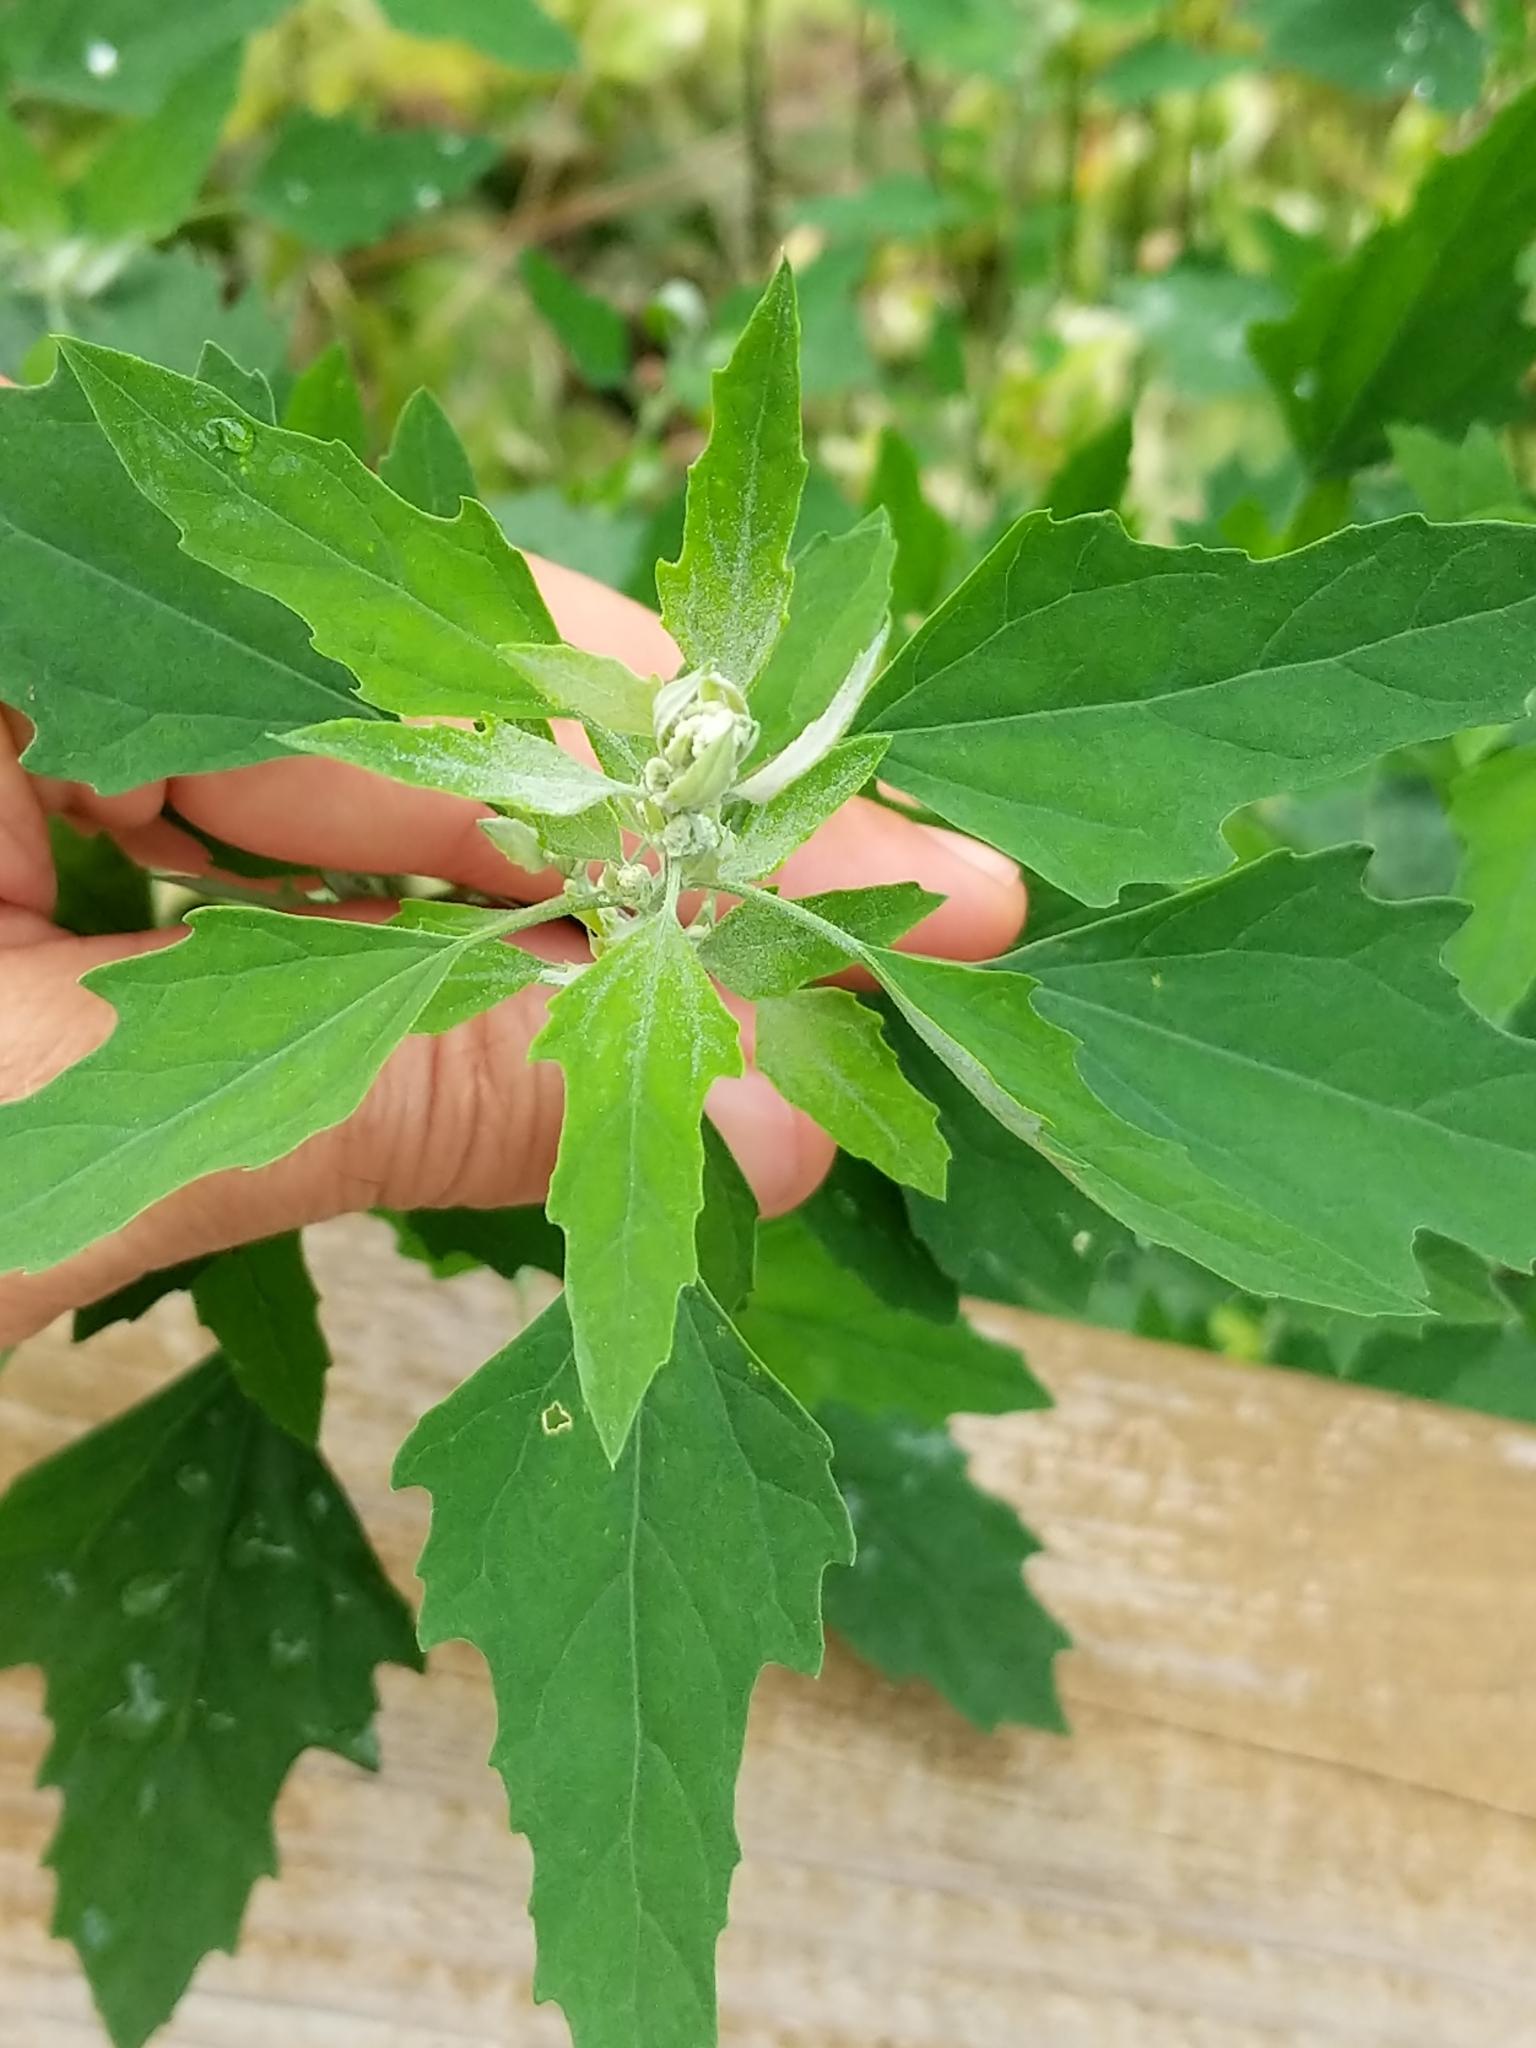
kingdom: Plantae
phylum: Tracheophyta
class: Magnoliopsida
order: Caryophyllales
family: Amaranthaceae
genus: Chenopodium
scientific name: Chenopodium album
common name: Fat-hen
